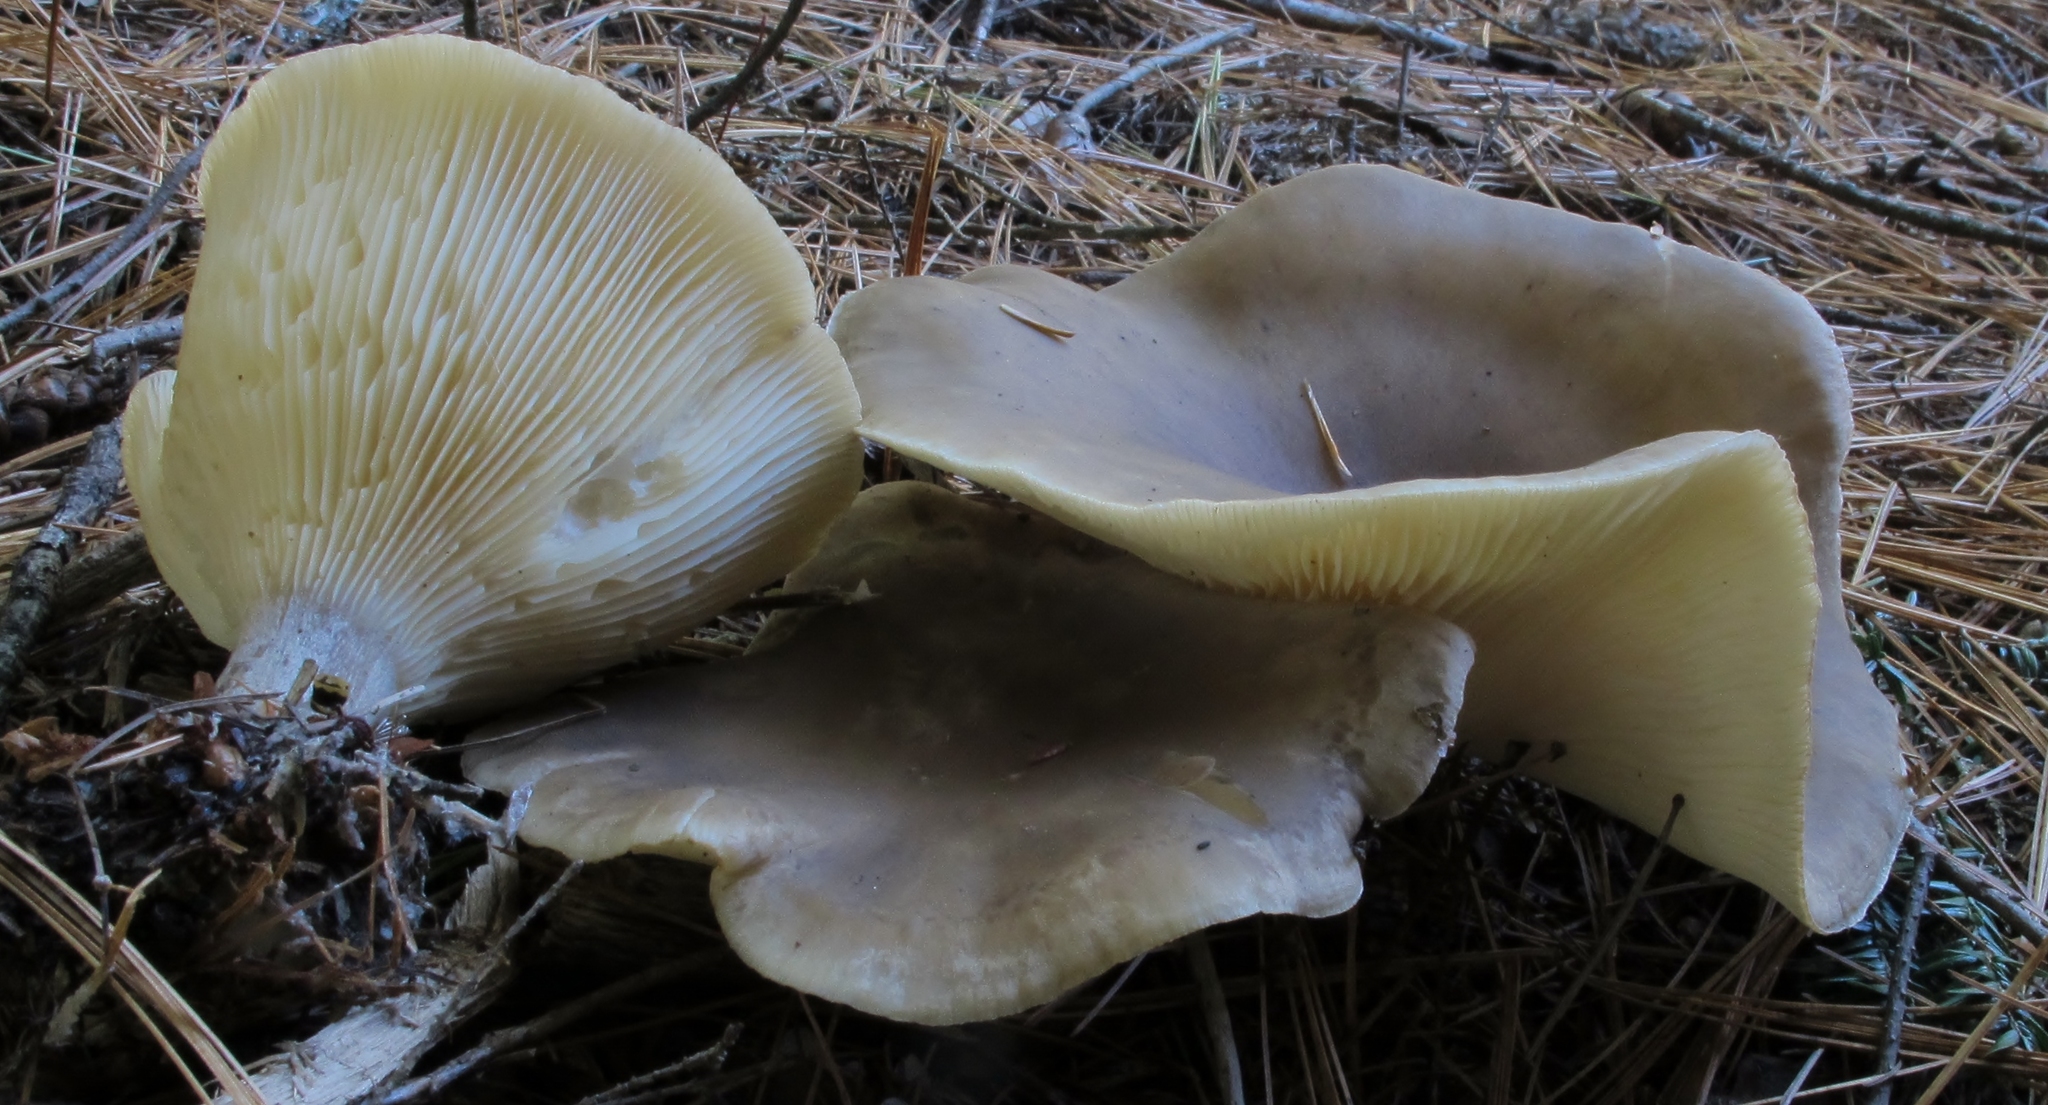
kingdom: Fungi
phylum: Basidiomycota
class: Agaricomycetes
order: Agaricales
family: Hygrophoraceae
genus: Ampulloclitocybe
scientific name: Ampulloclitocybe clavipes
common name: Club foot
